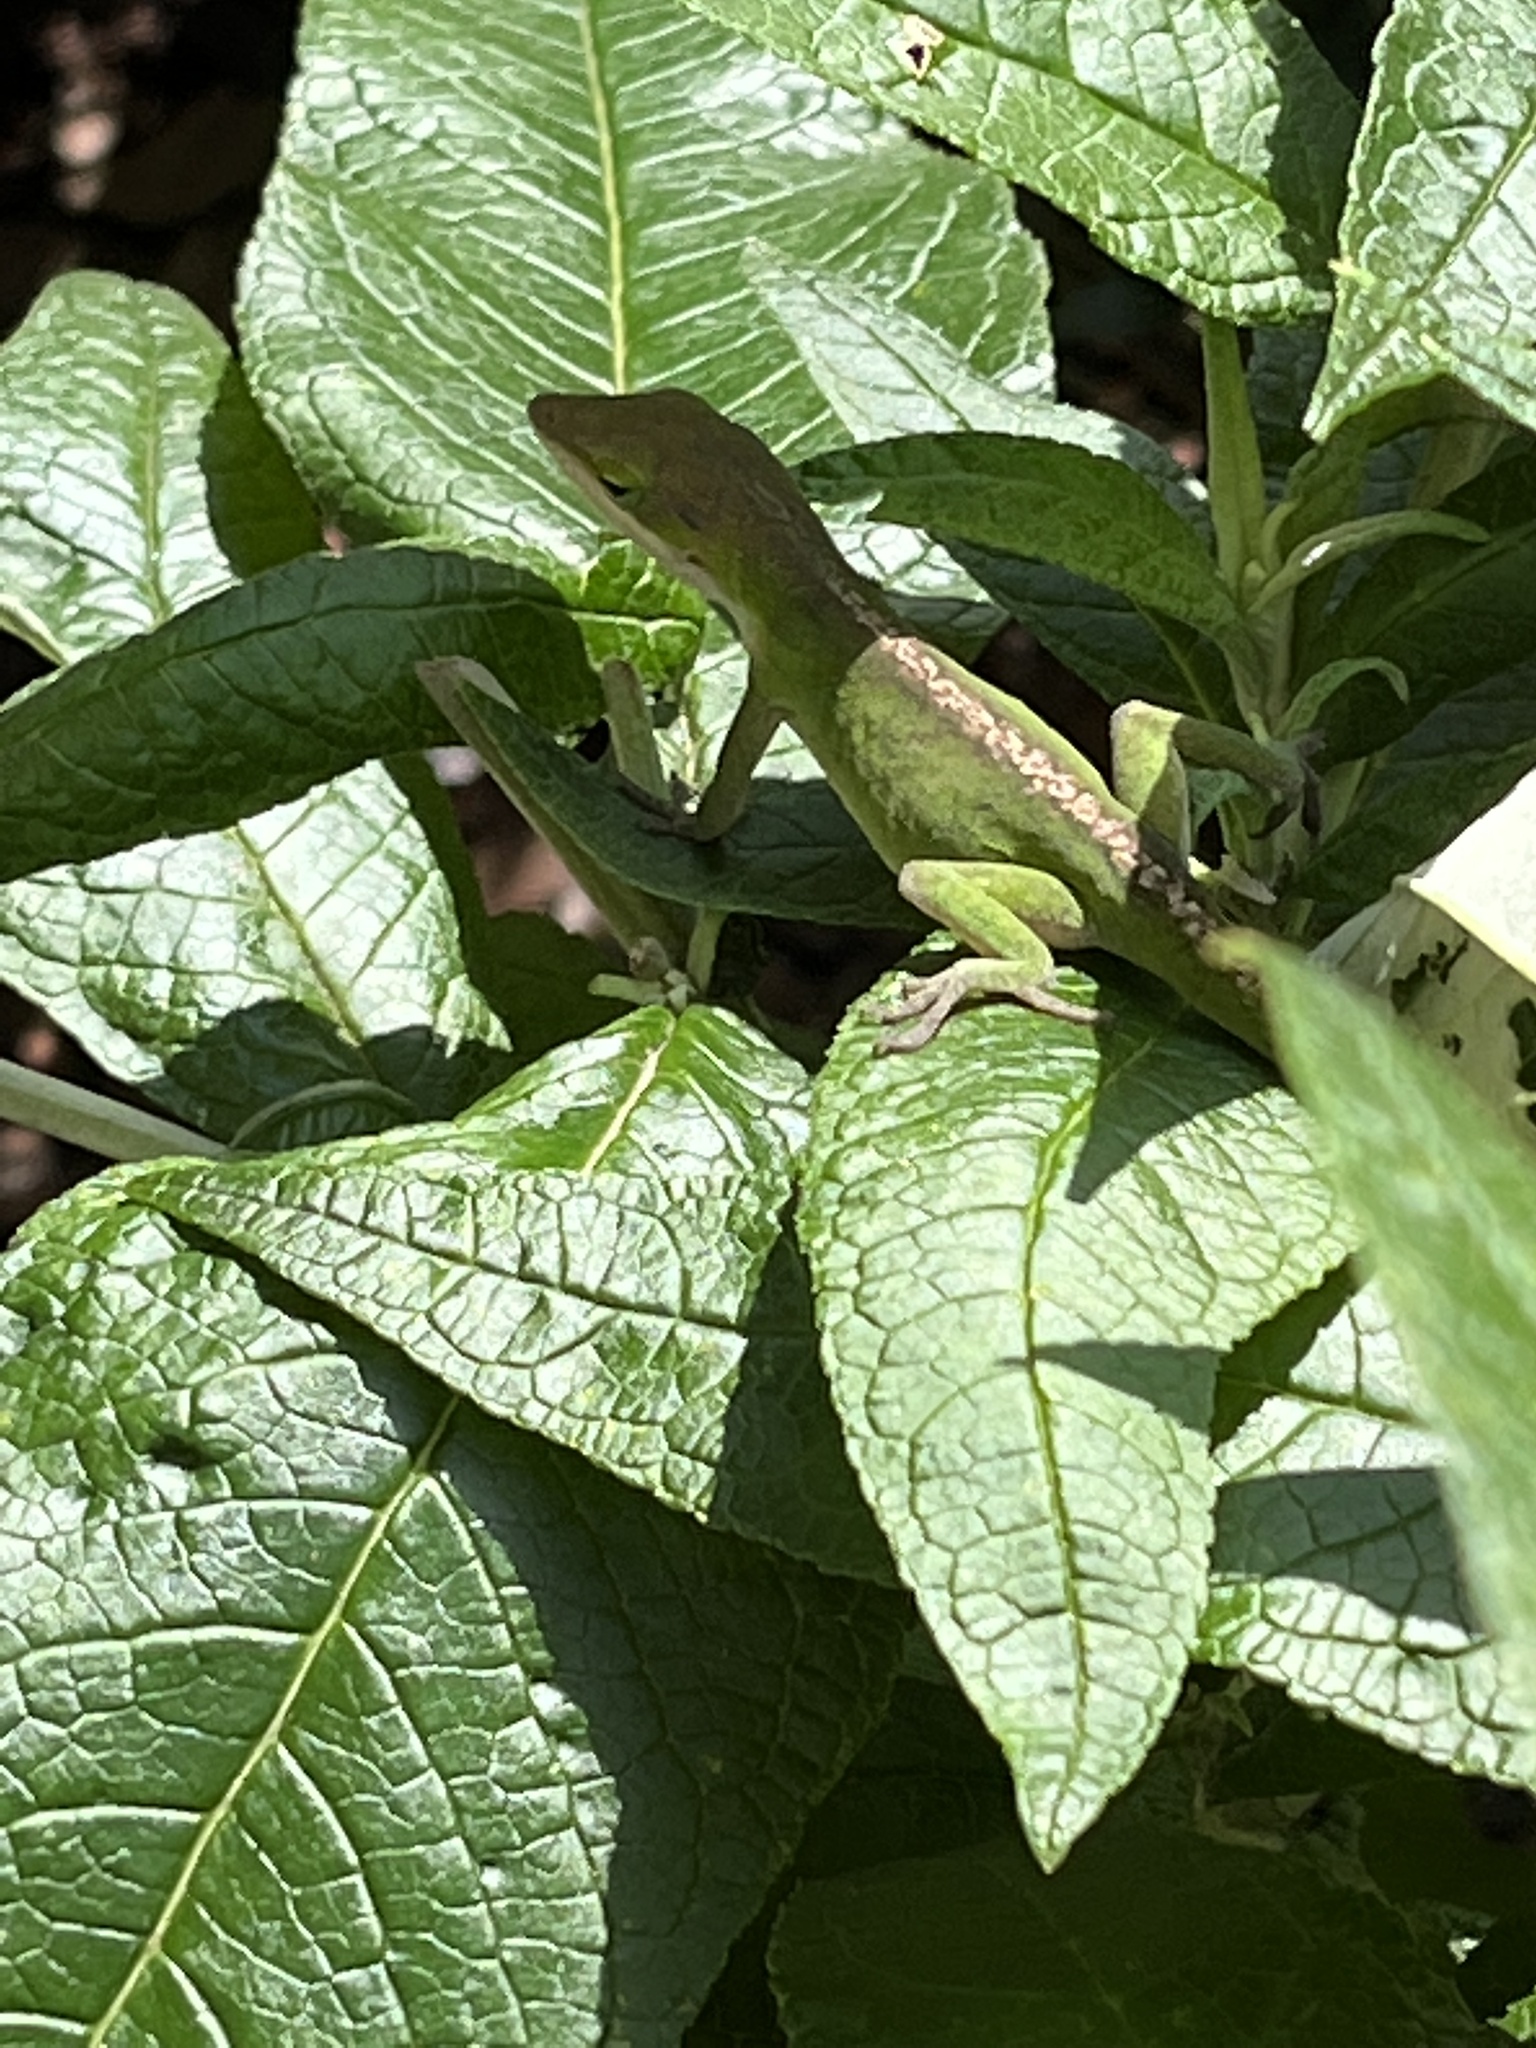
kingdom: Animalia
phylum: Chordata
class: Squamata
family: Dactyloidae
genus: Anolis
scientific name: Anolis carolinensis
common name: Green anole
